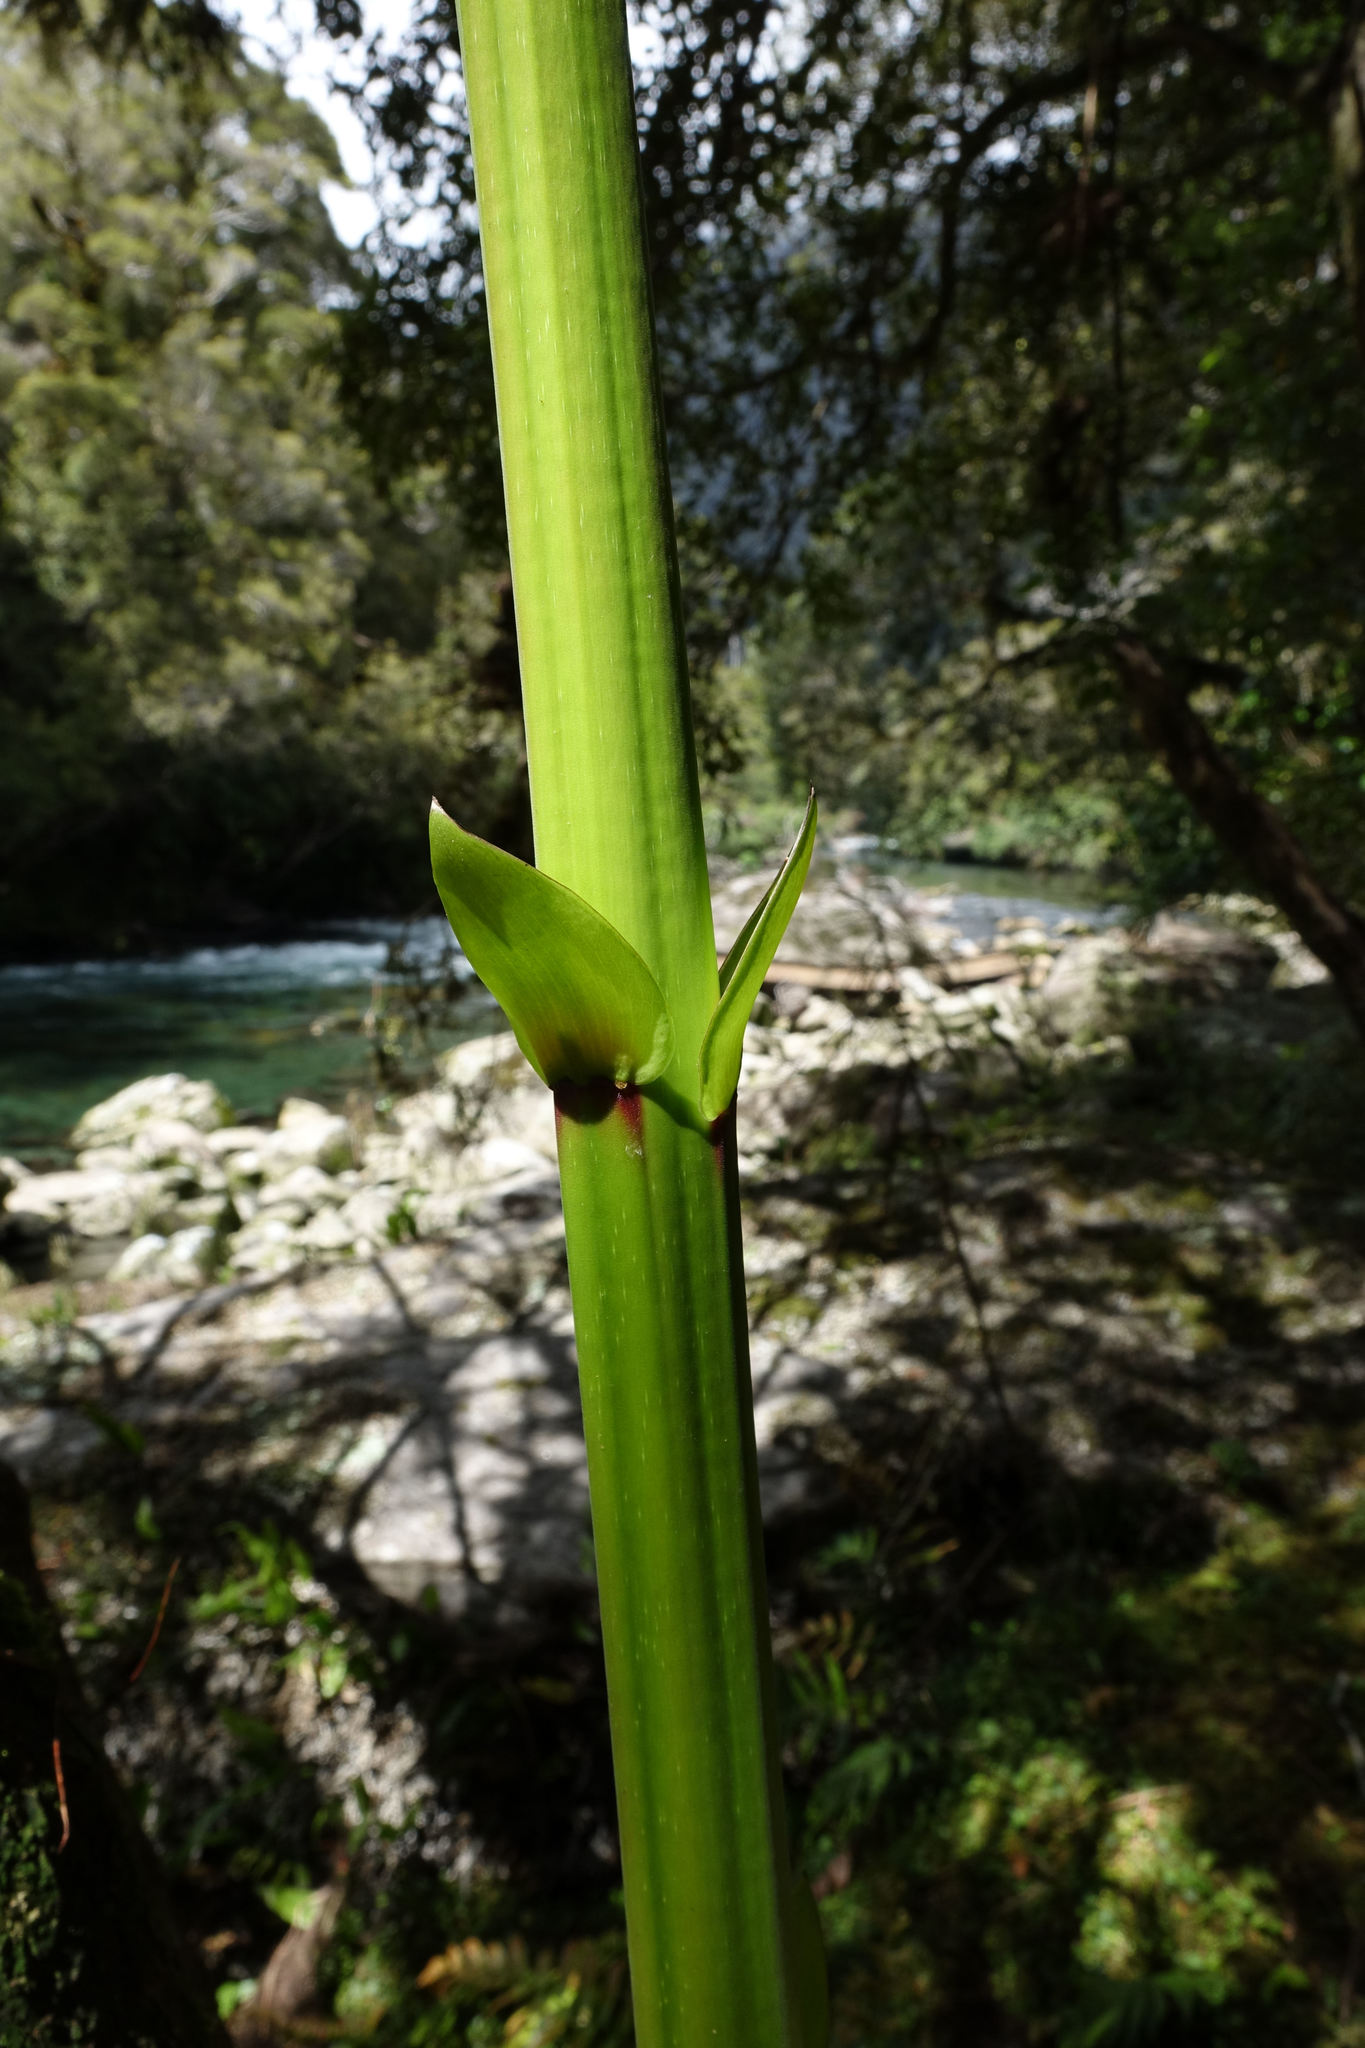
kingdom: Plantae
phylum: Tracheophyta
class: Magnoliopsida
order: Cucurbitales
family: Coriariaceae
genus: Coriaria
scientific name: Coriaria arborea
